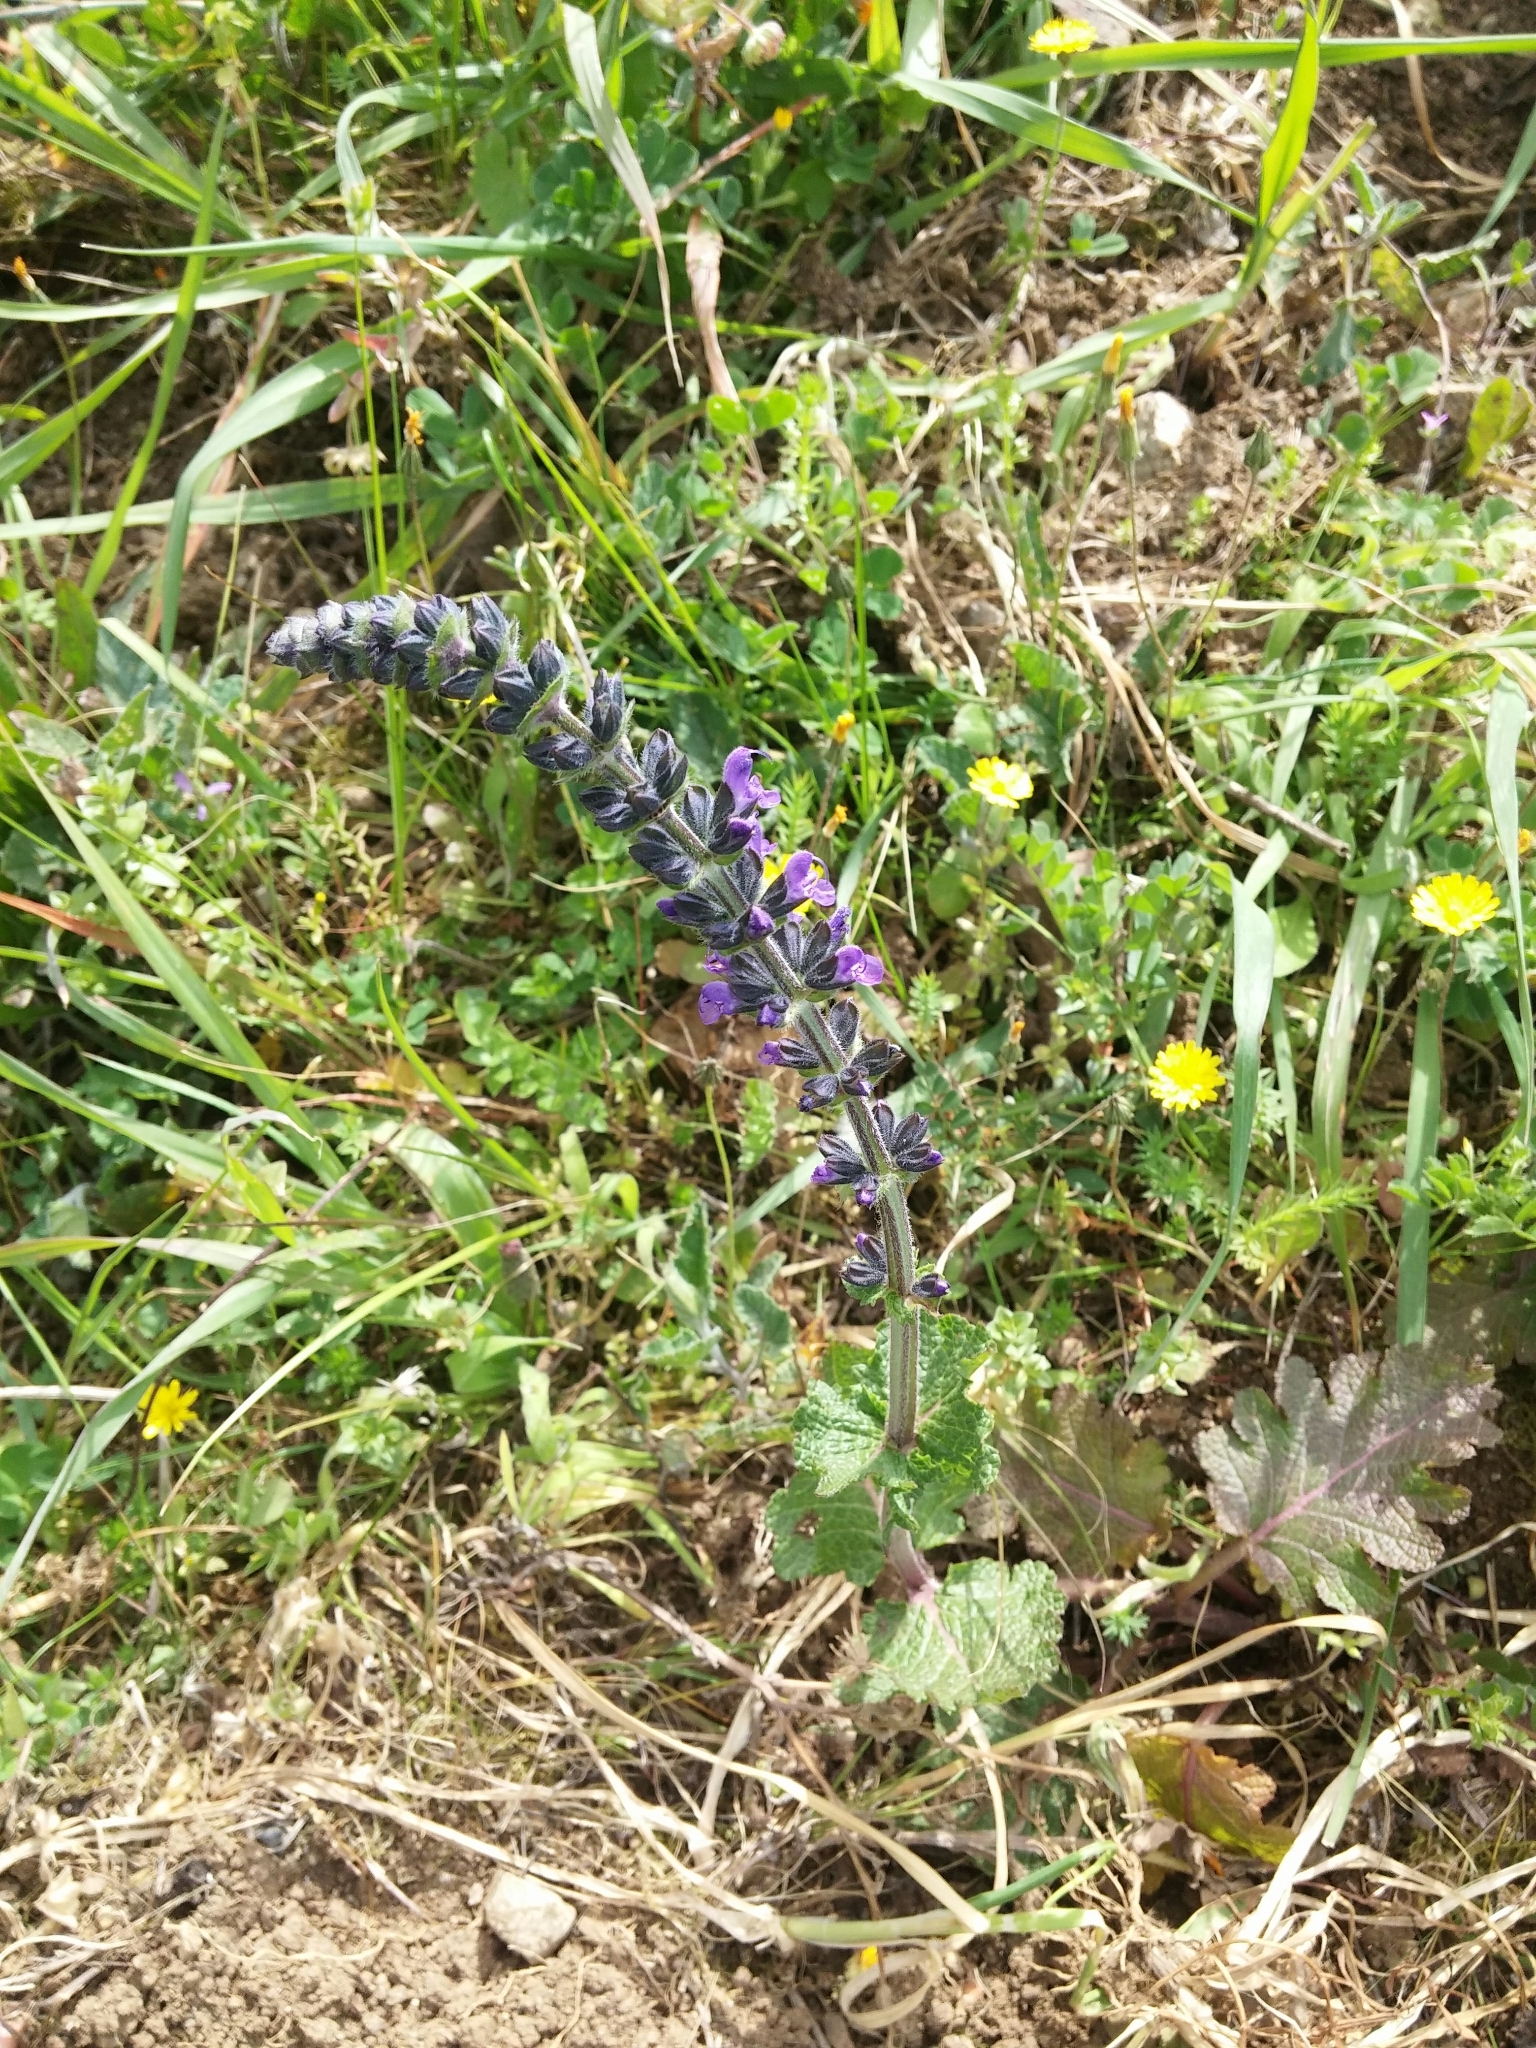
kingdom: Plantae
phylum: Tracheophyta
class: Magnoliopsida
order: Lamiales
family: Lamiaceae
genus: Salvia
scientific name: Salvia verbenaca
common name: Wild clary
